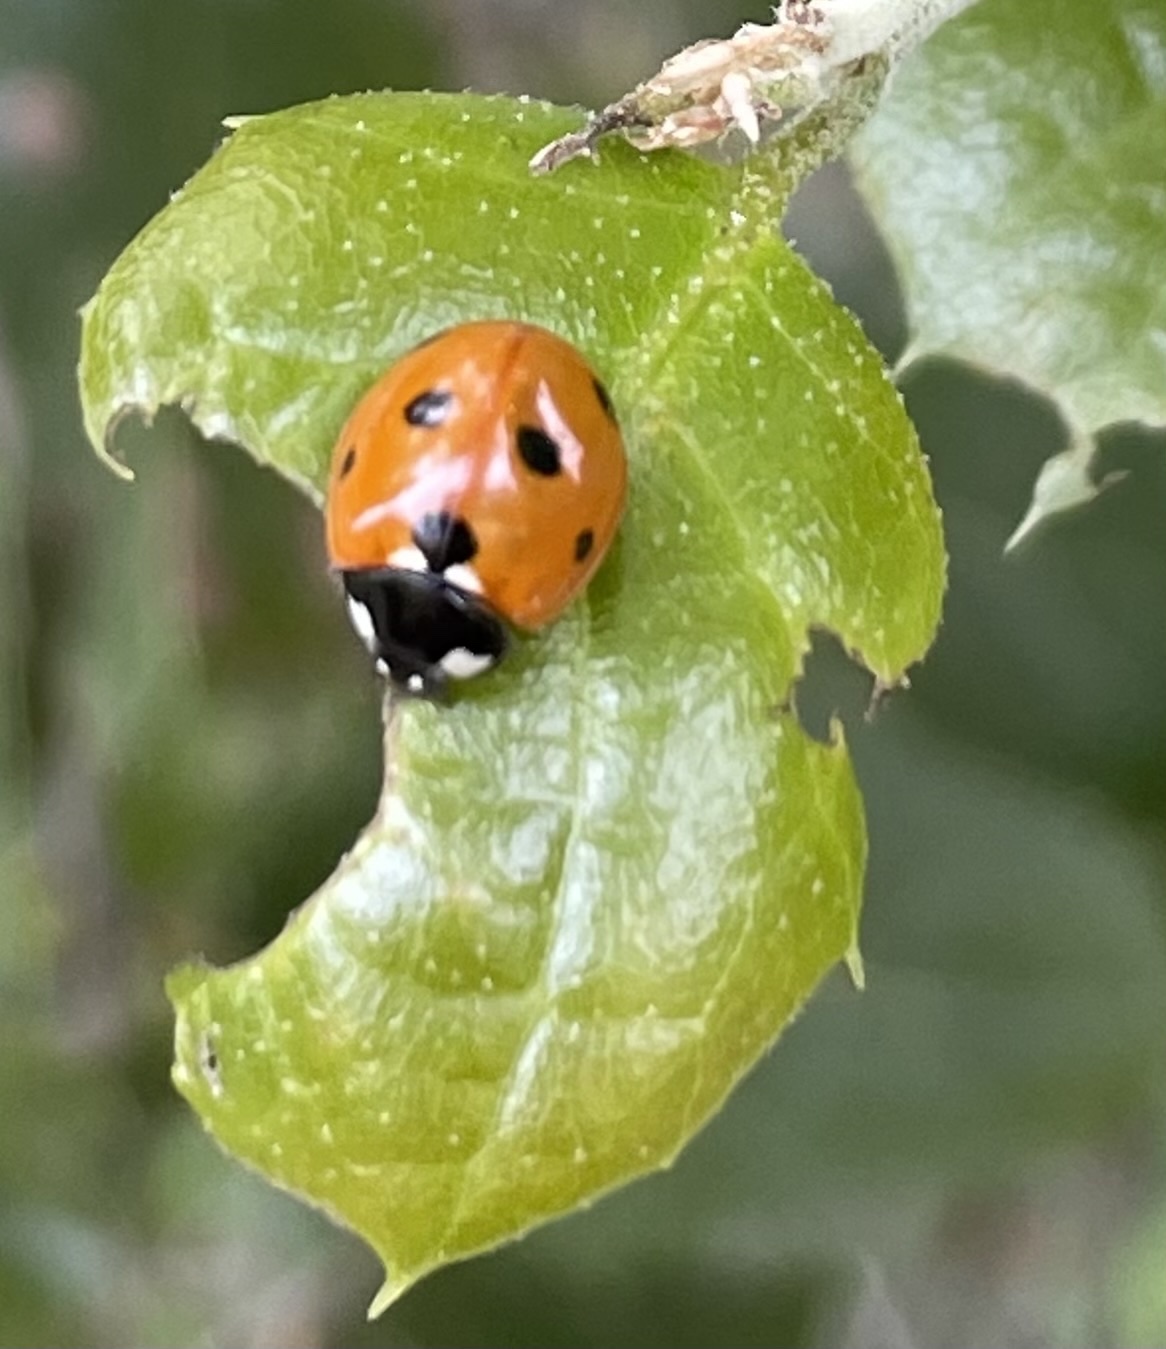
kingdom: Animalia
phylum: Arthropoda
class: Insecta
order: Coleoptera
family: Coccinellidae
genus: Coccinella
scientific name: Coccinella septempunctata
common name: Sevenspotted lady beetle
